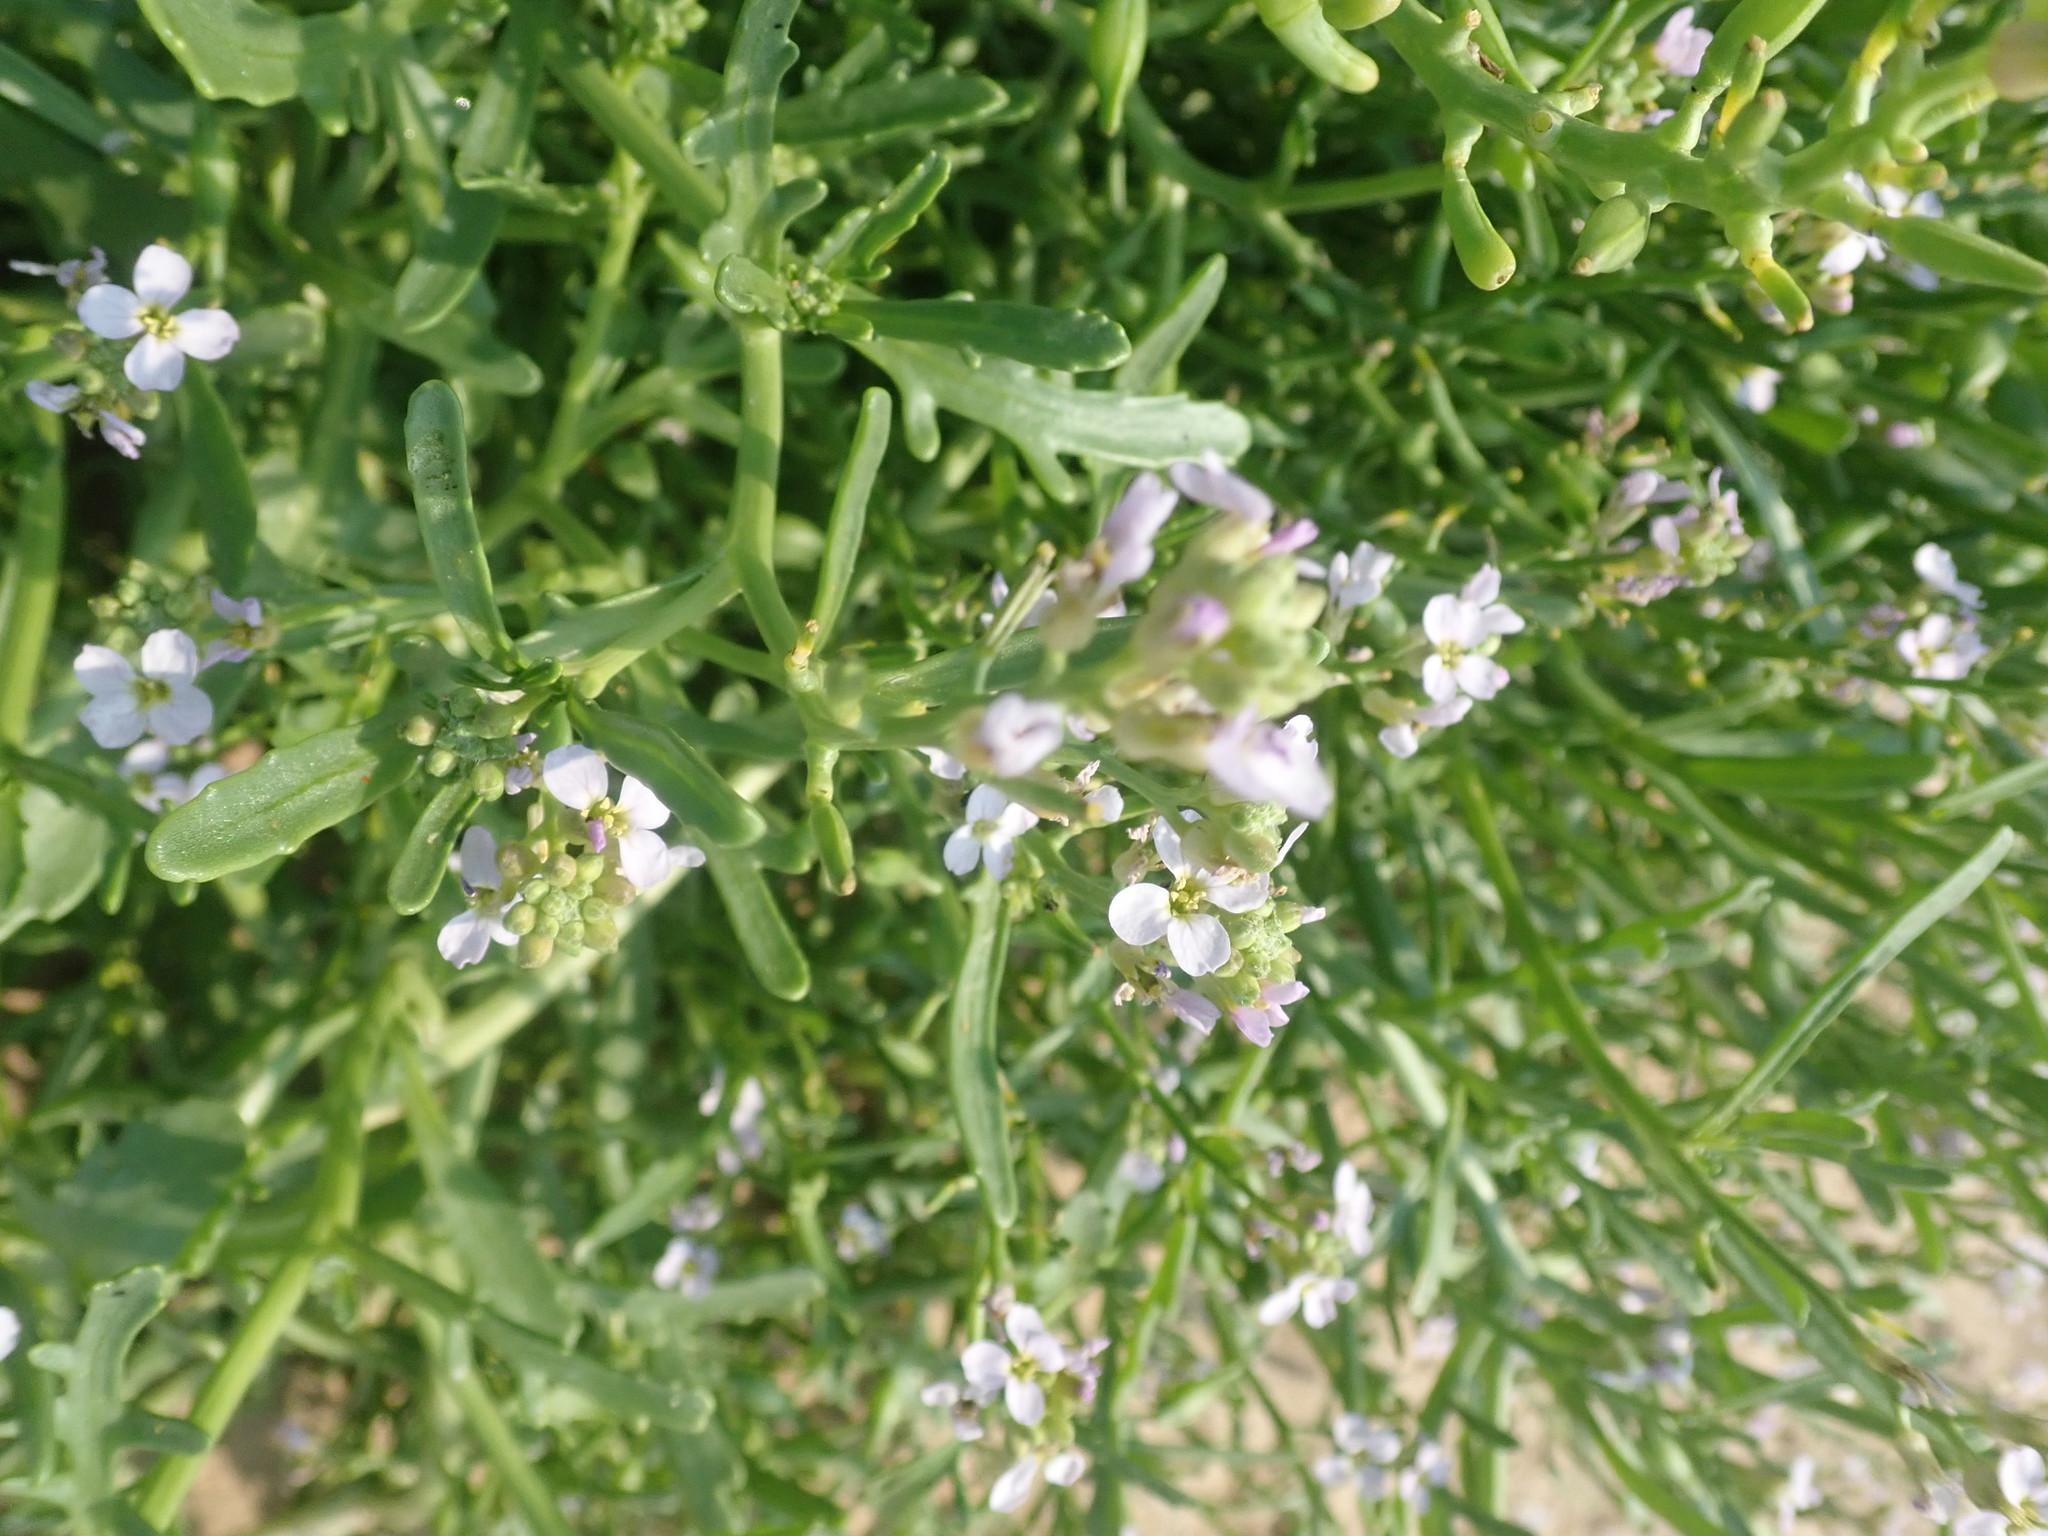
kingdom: Plantae
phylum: Tracheophyta
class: Magnoliopsida
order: Brassicales
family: Brassicaceae
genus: Cakile
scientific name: Cakile maritima
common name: Sea rocket
